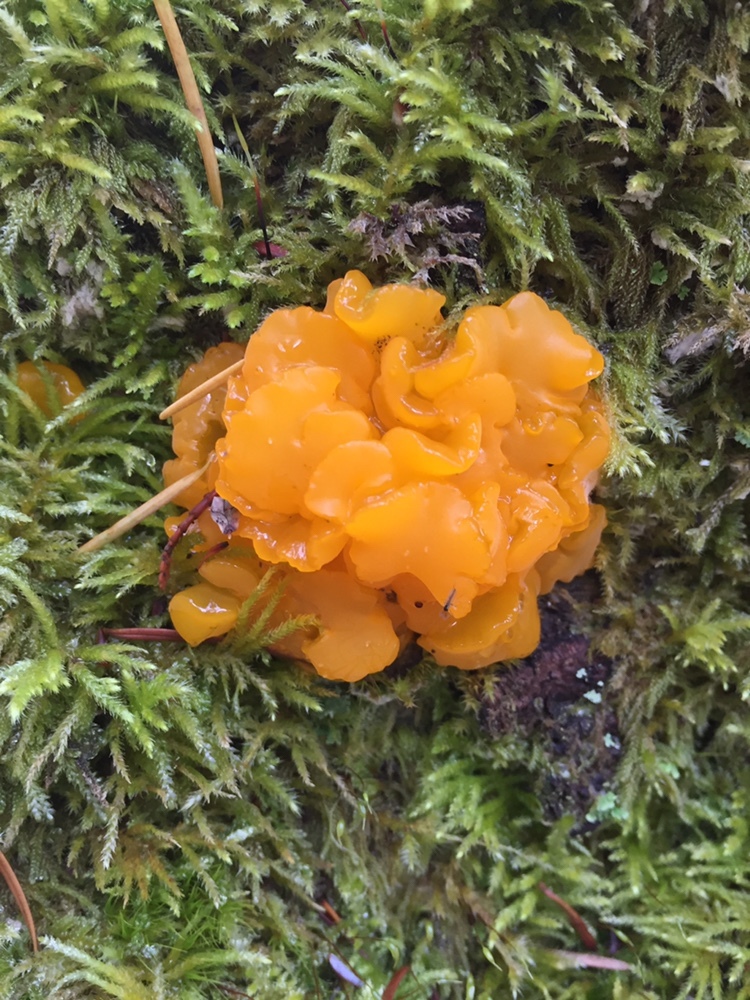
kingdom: Fungi
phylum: Basidiomycota
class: Dacrymycetes
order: Dacrymycetales
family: Dacrymycetaceae
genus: Dacrymyces
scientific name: Dacrymyces chrysospermus
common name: Orange jelly spot
